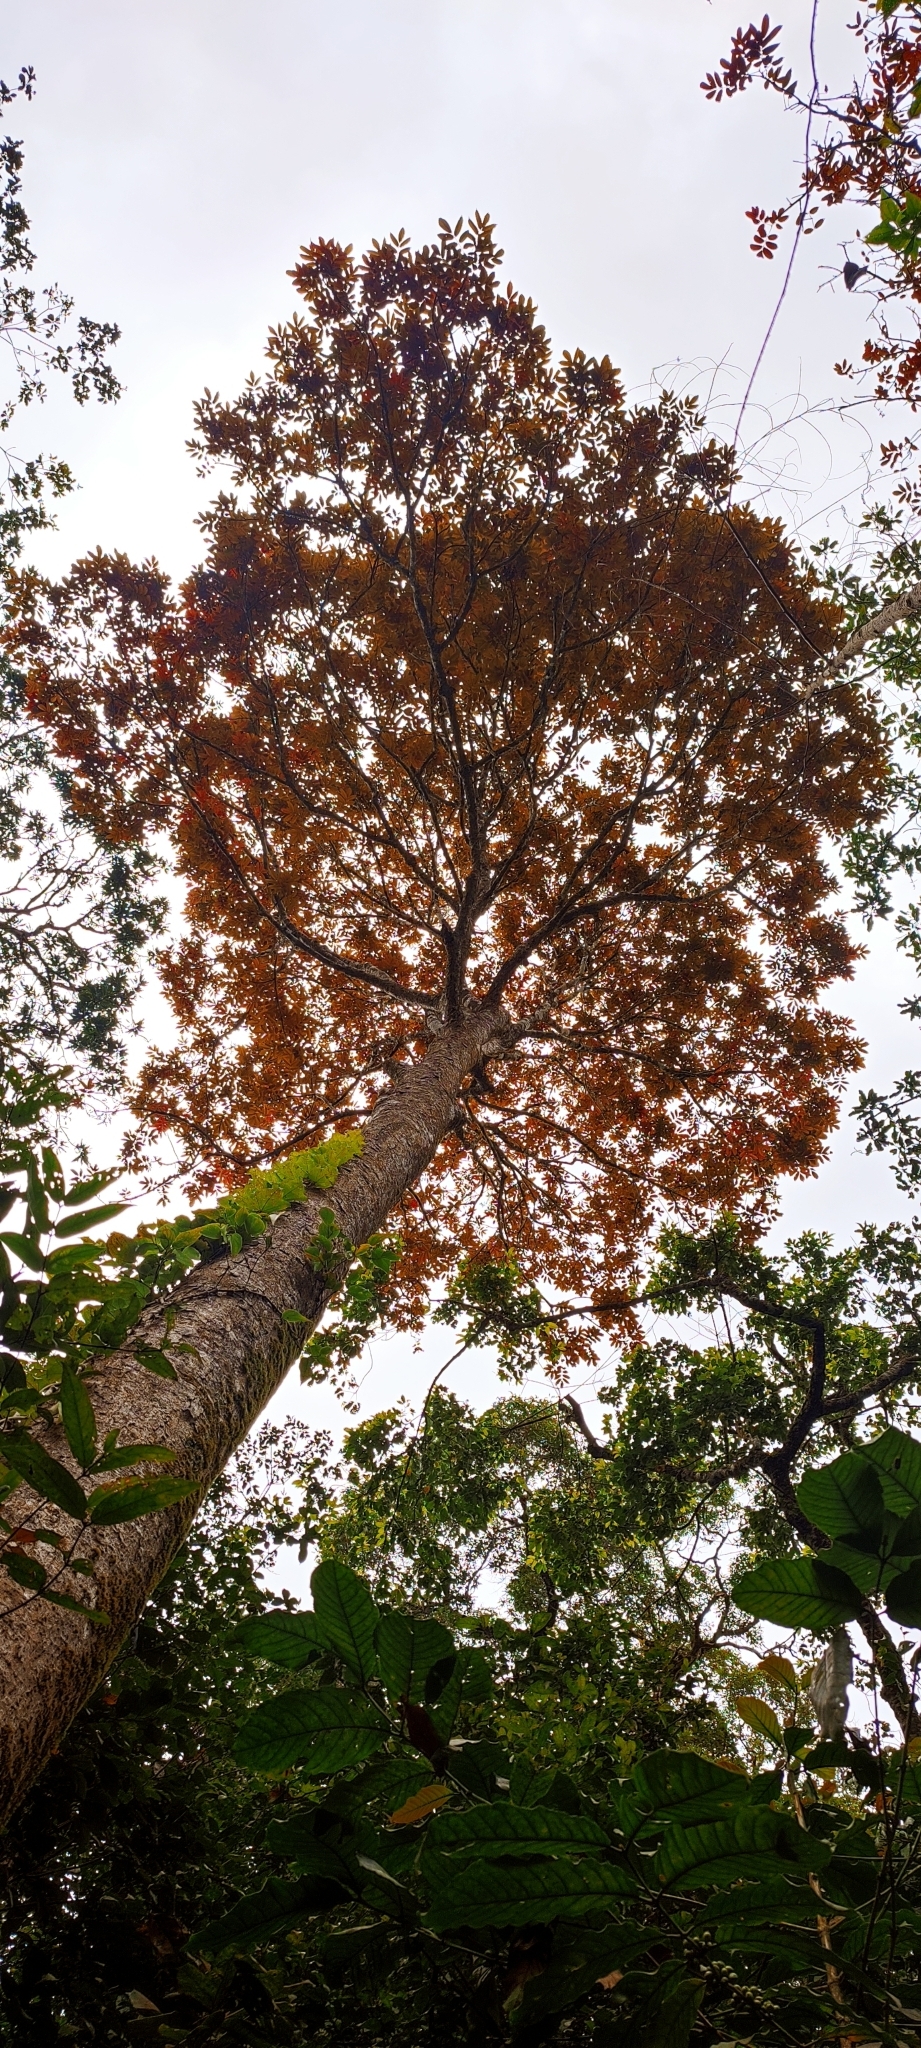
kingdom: Plantae
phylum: Tracheophyta
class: Magnoliopsida
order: Sapindales
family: Burseraceae
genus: Canarium
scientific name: Canarium strictum
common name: Indian white-mahogany
